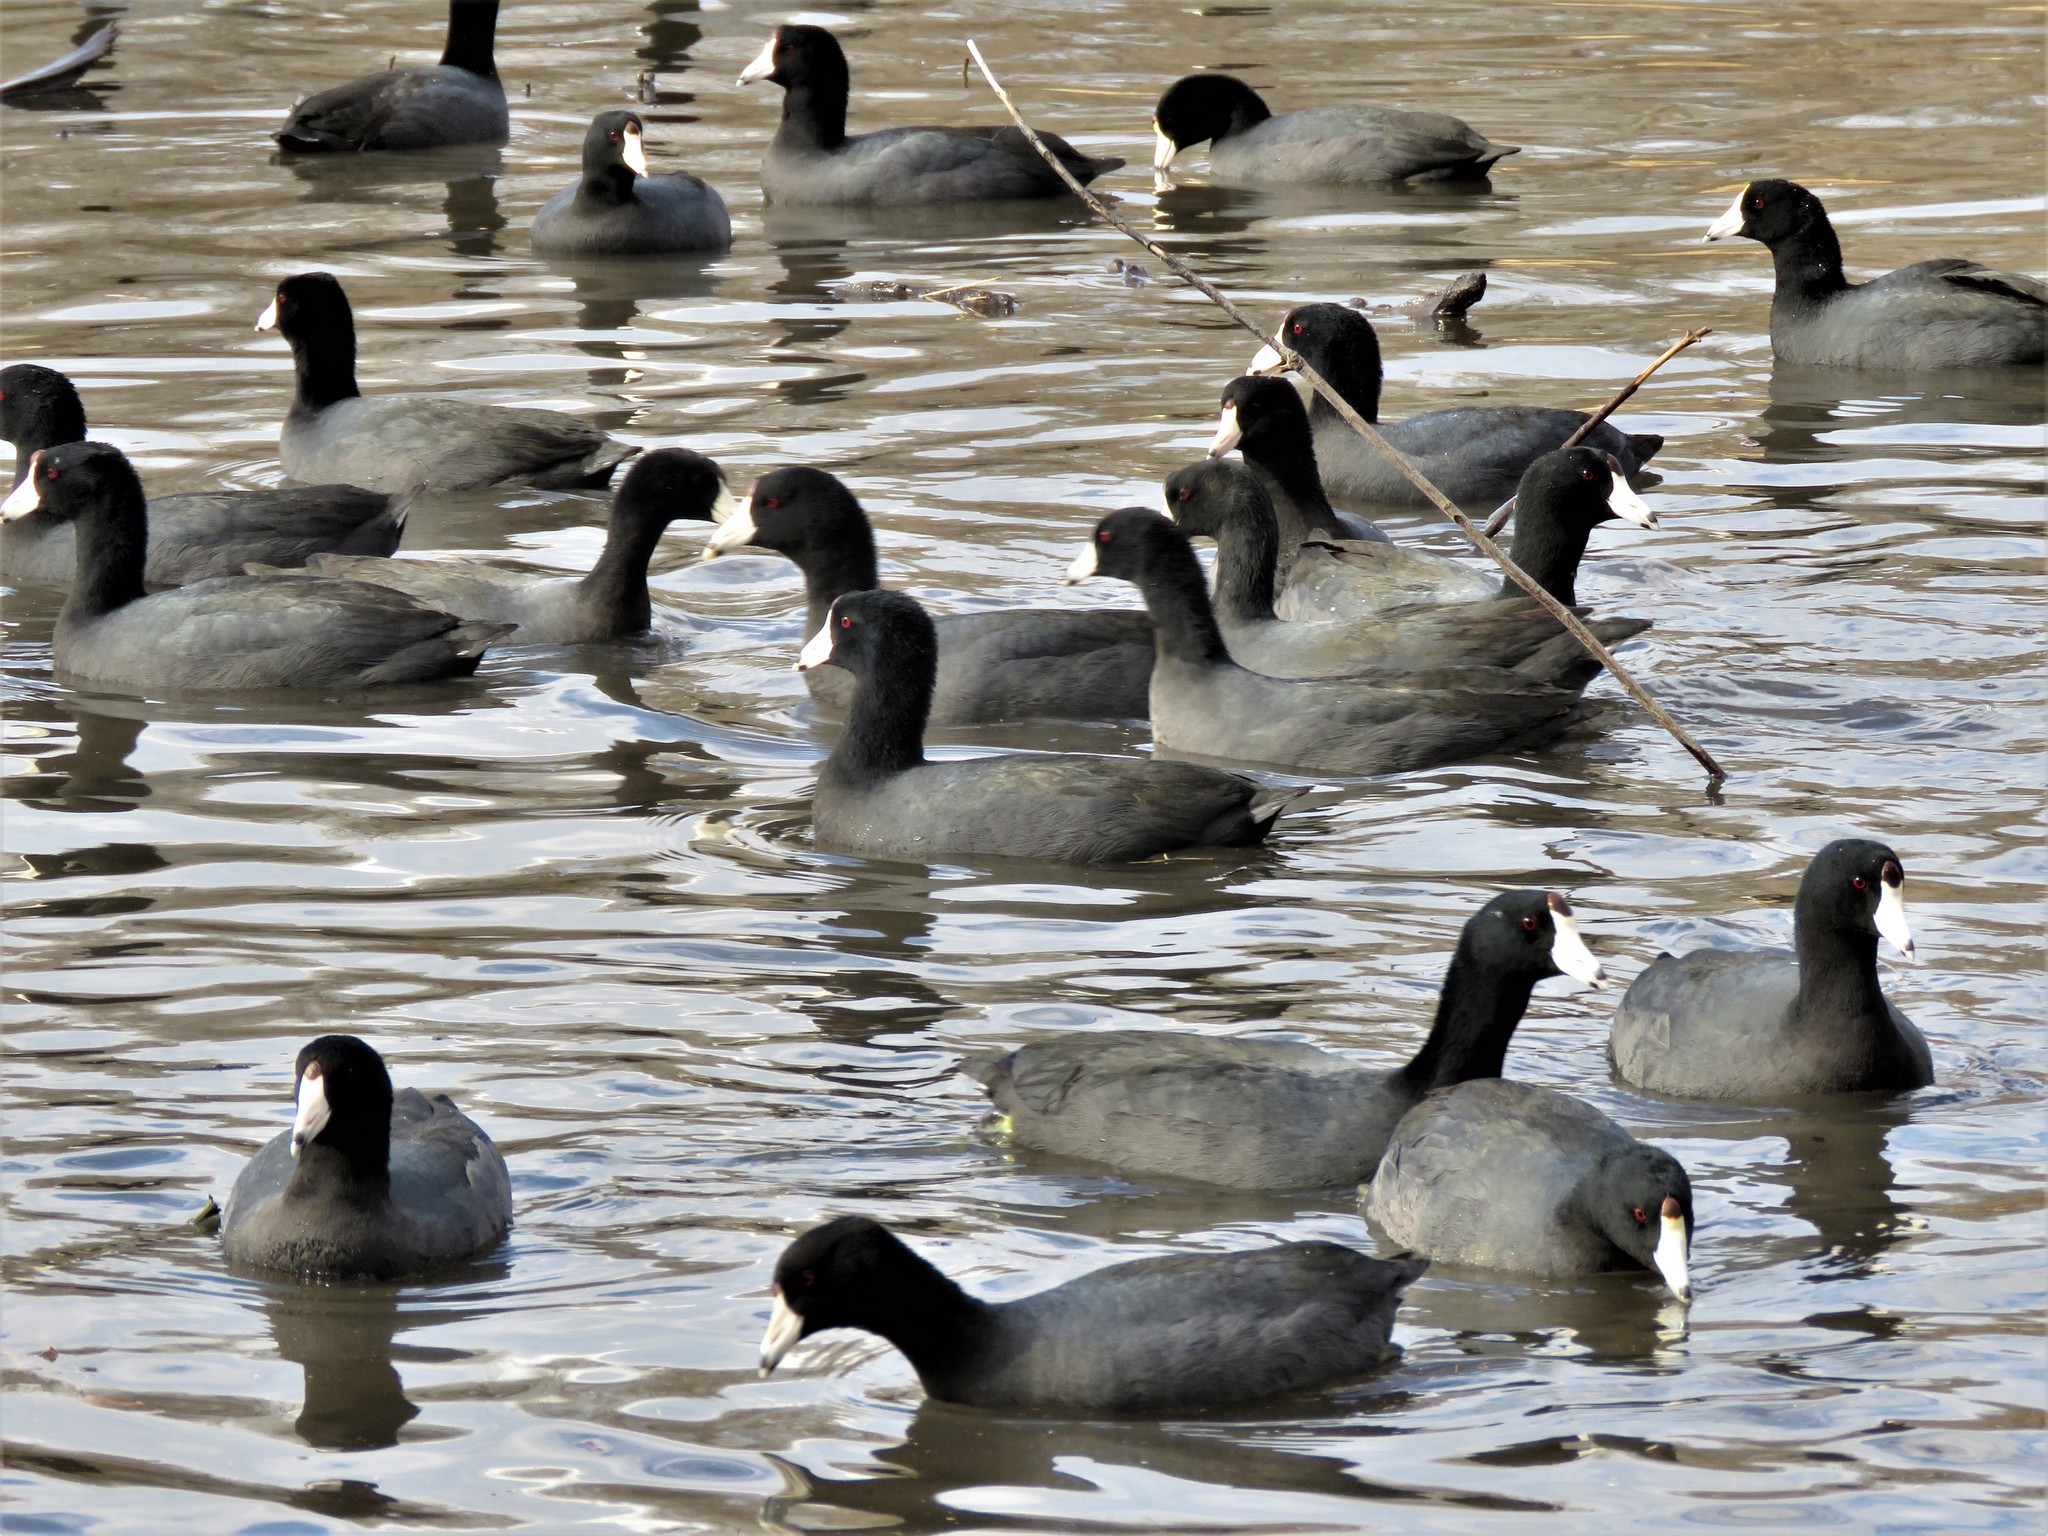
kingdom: Animalia
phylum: Chordata
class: Aves
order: Gruiformes
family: Rallidae
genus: Fulica
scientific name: Fulica americana
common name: American coot
